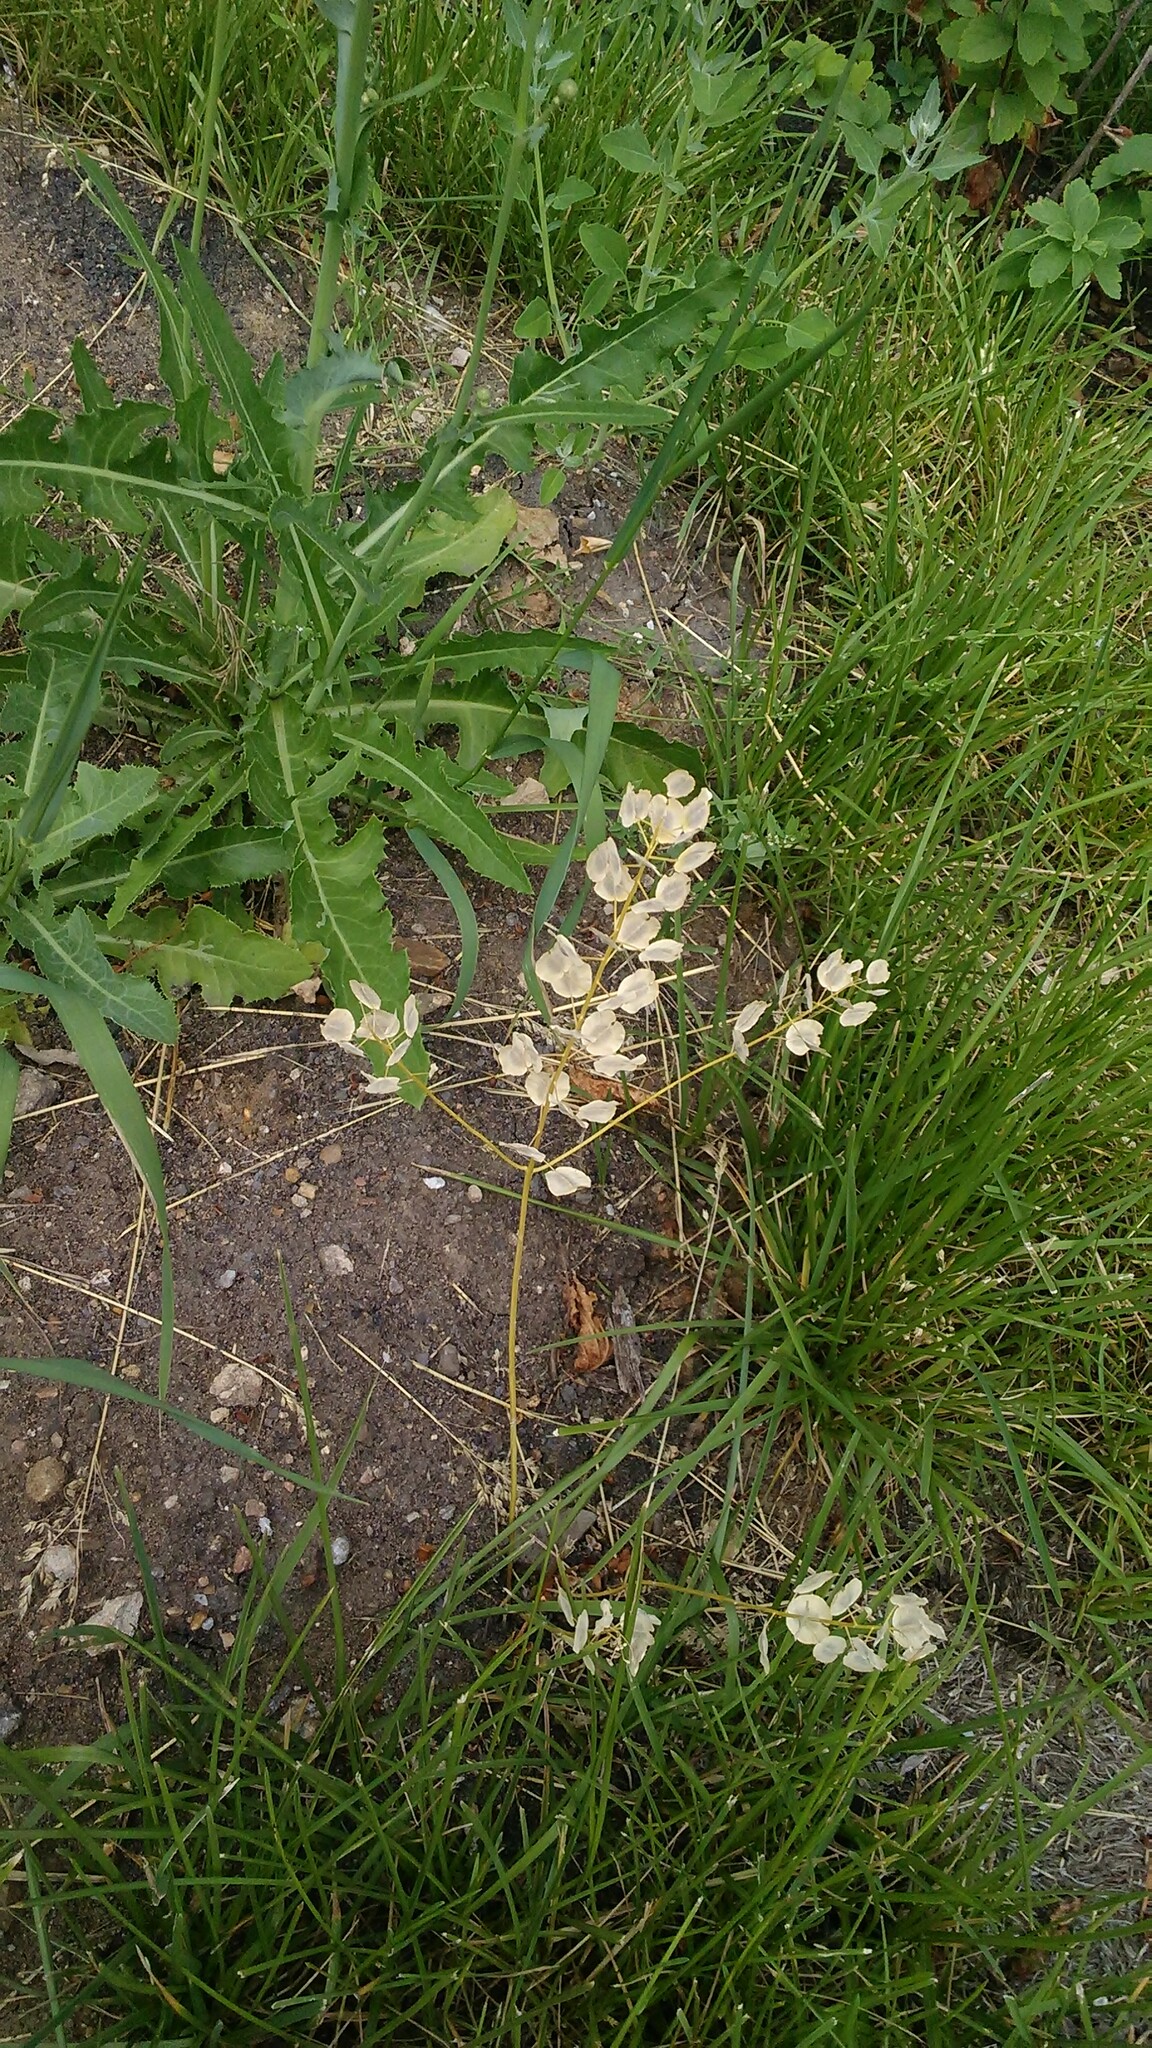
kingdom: Plantae
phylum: Tracheophyta
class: Magnoliopsida
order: Brassicales
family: Brassicaceae
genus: Thlaspi
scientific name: Thlaspi arvense
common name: Field pennycress
